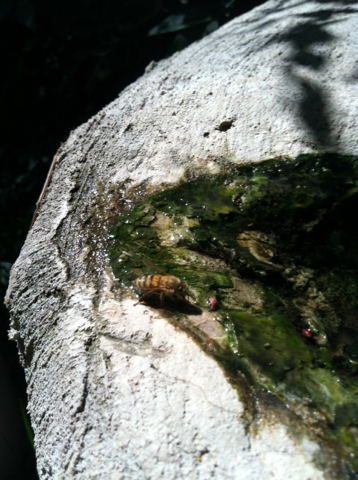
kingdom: Animalia
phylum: Arthropoda
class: Insecta
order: Hymenoptera
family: Apidae
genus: Apis
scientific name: Apis mellifera
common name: Honey bee
